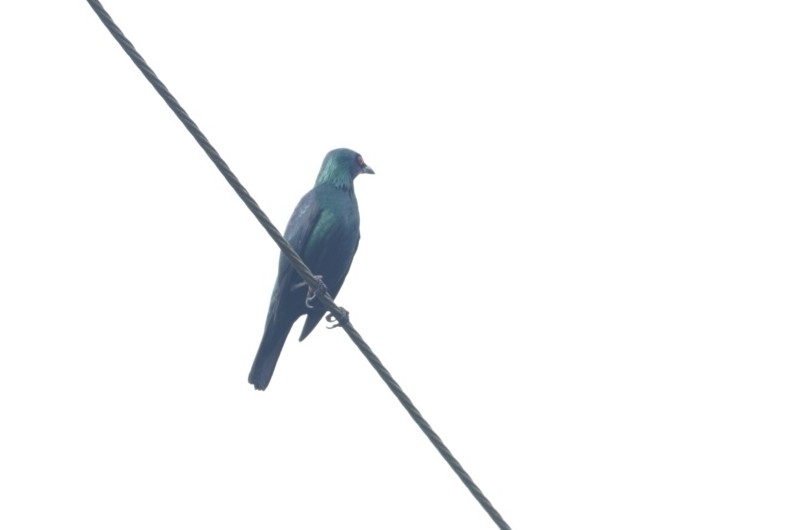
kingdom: Animalia
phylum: Chordata
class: Aves
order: Passeriformes
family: Sturnidae
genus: Aplonis
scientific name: Aplonis panayensis
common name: Asian glossy starling
